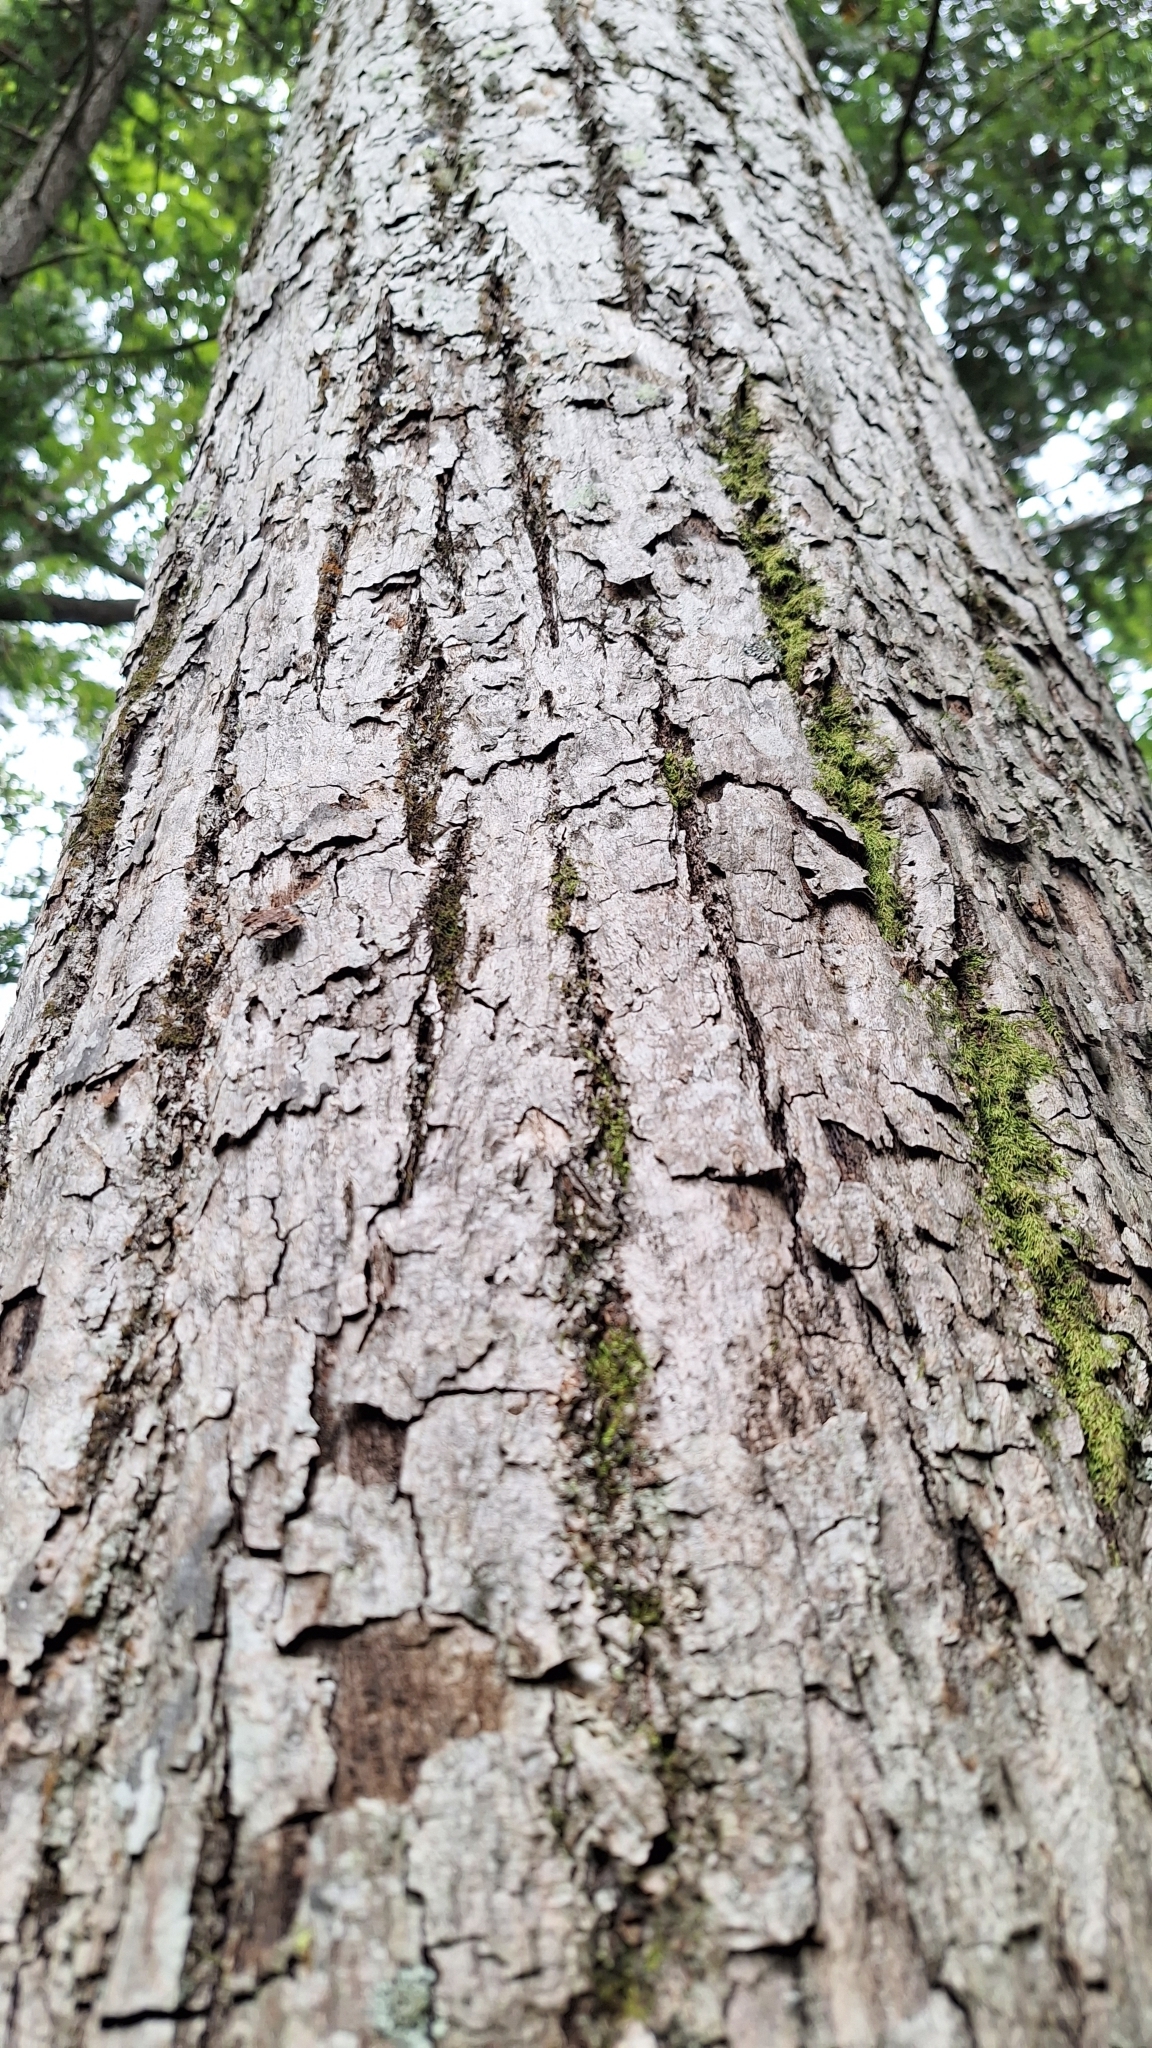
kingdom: Plantae
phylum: Tracheophyta
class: Magnoliopsida
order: Malvales
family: Malvaceae
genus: Tilia
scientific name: Tilia amurensis
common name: Amur lime
